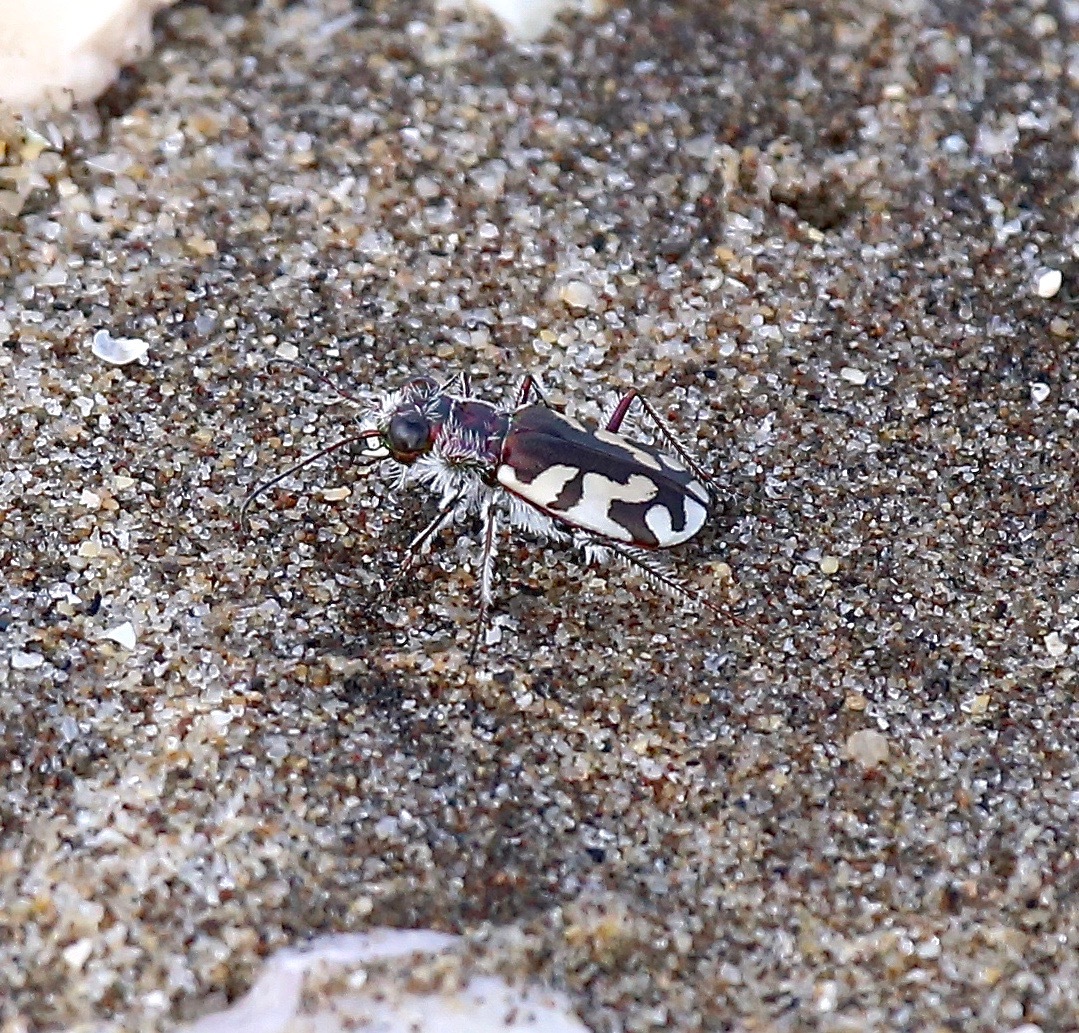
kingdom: Animalia
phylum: Arthropoda
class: Insecta
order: Coleoptera
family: Carabidae
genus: Cicindela
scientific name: Cicindela latesignata
